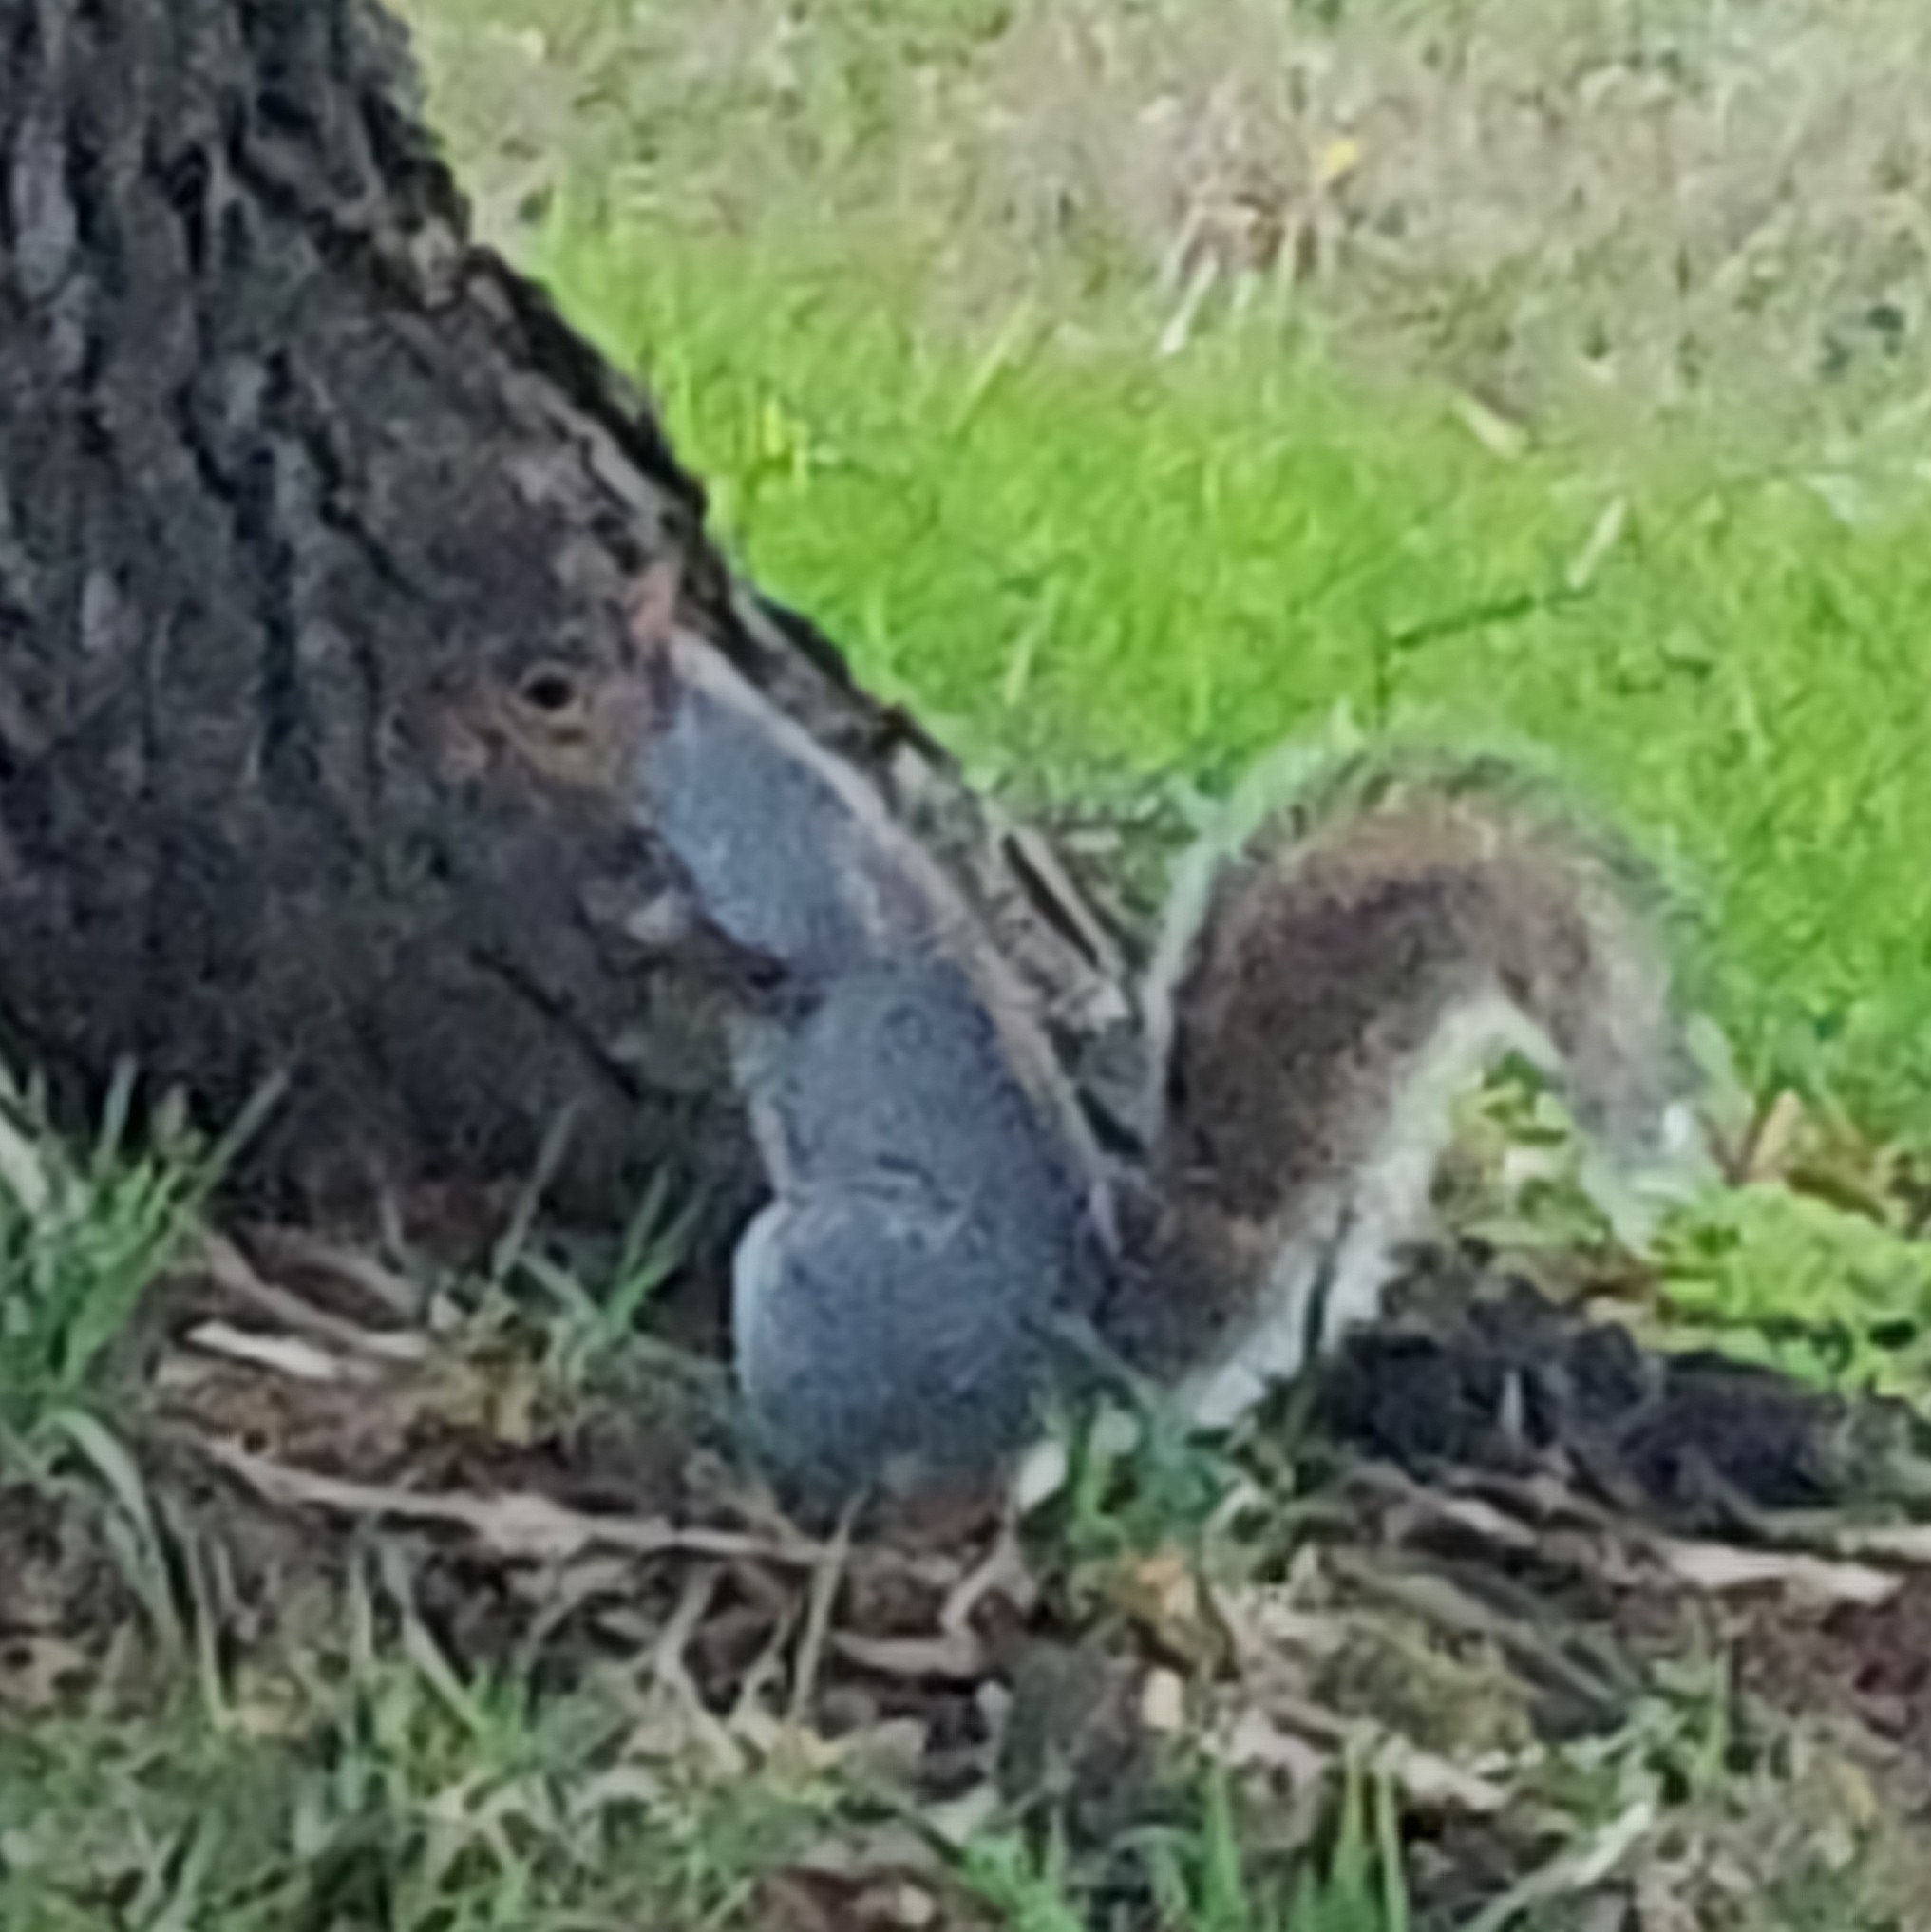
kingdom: Animalia
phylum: Chordata
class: Mammalia
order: Rodentia
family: Sciuridae
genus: Sciurus
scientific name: Sciurus carolinensis
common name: Eastern gray squirrel
